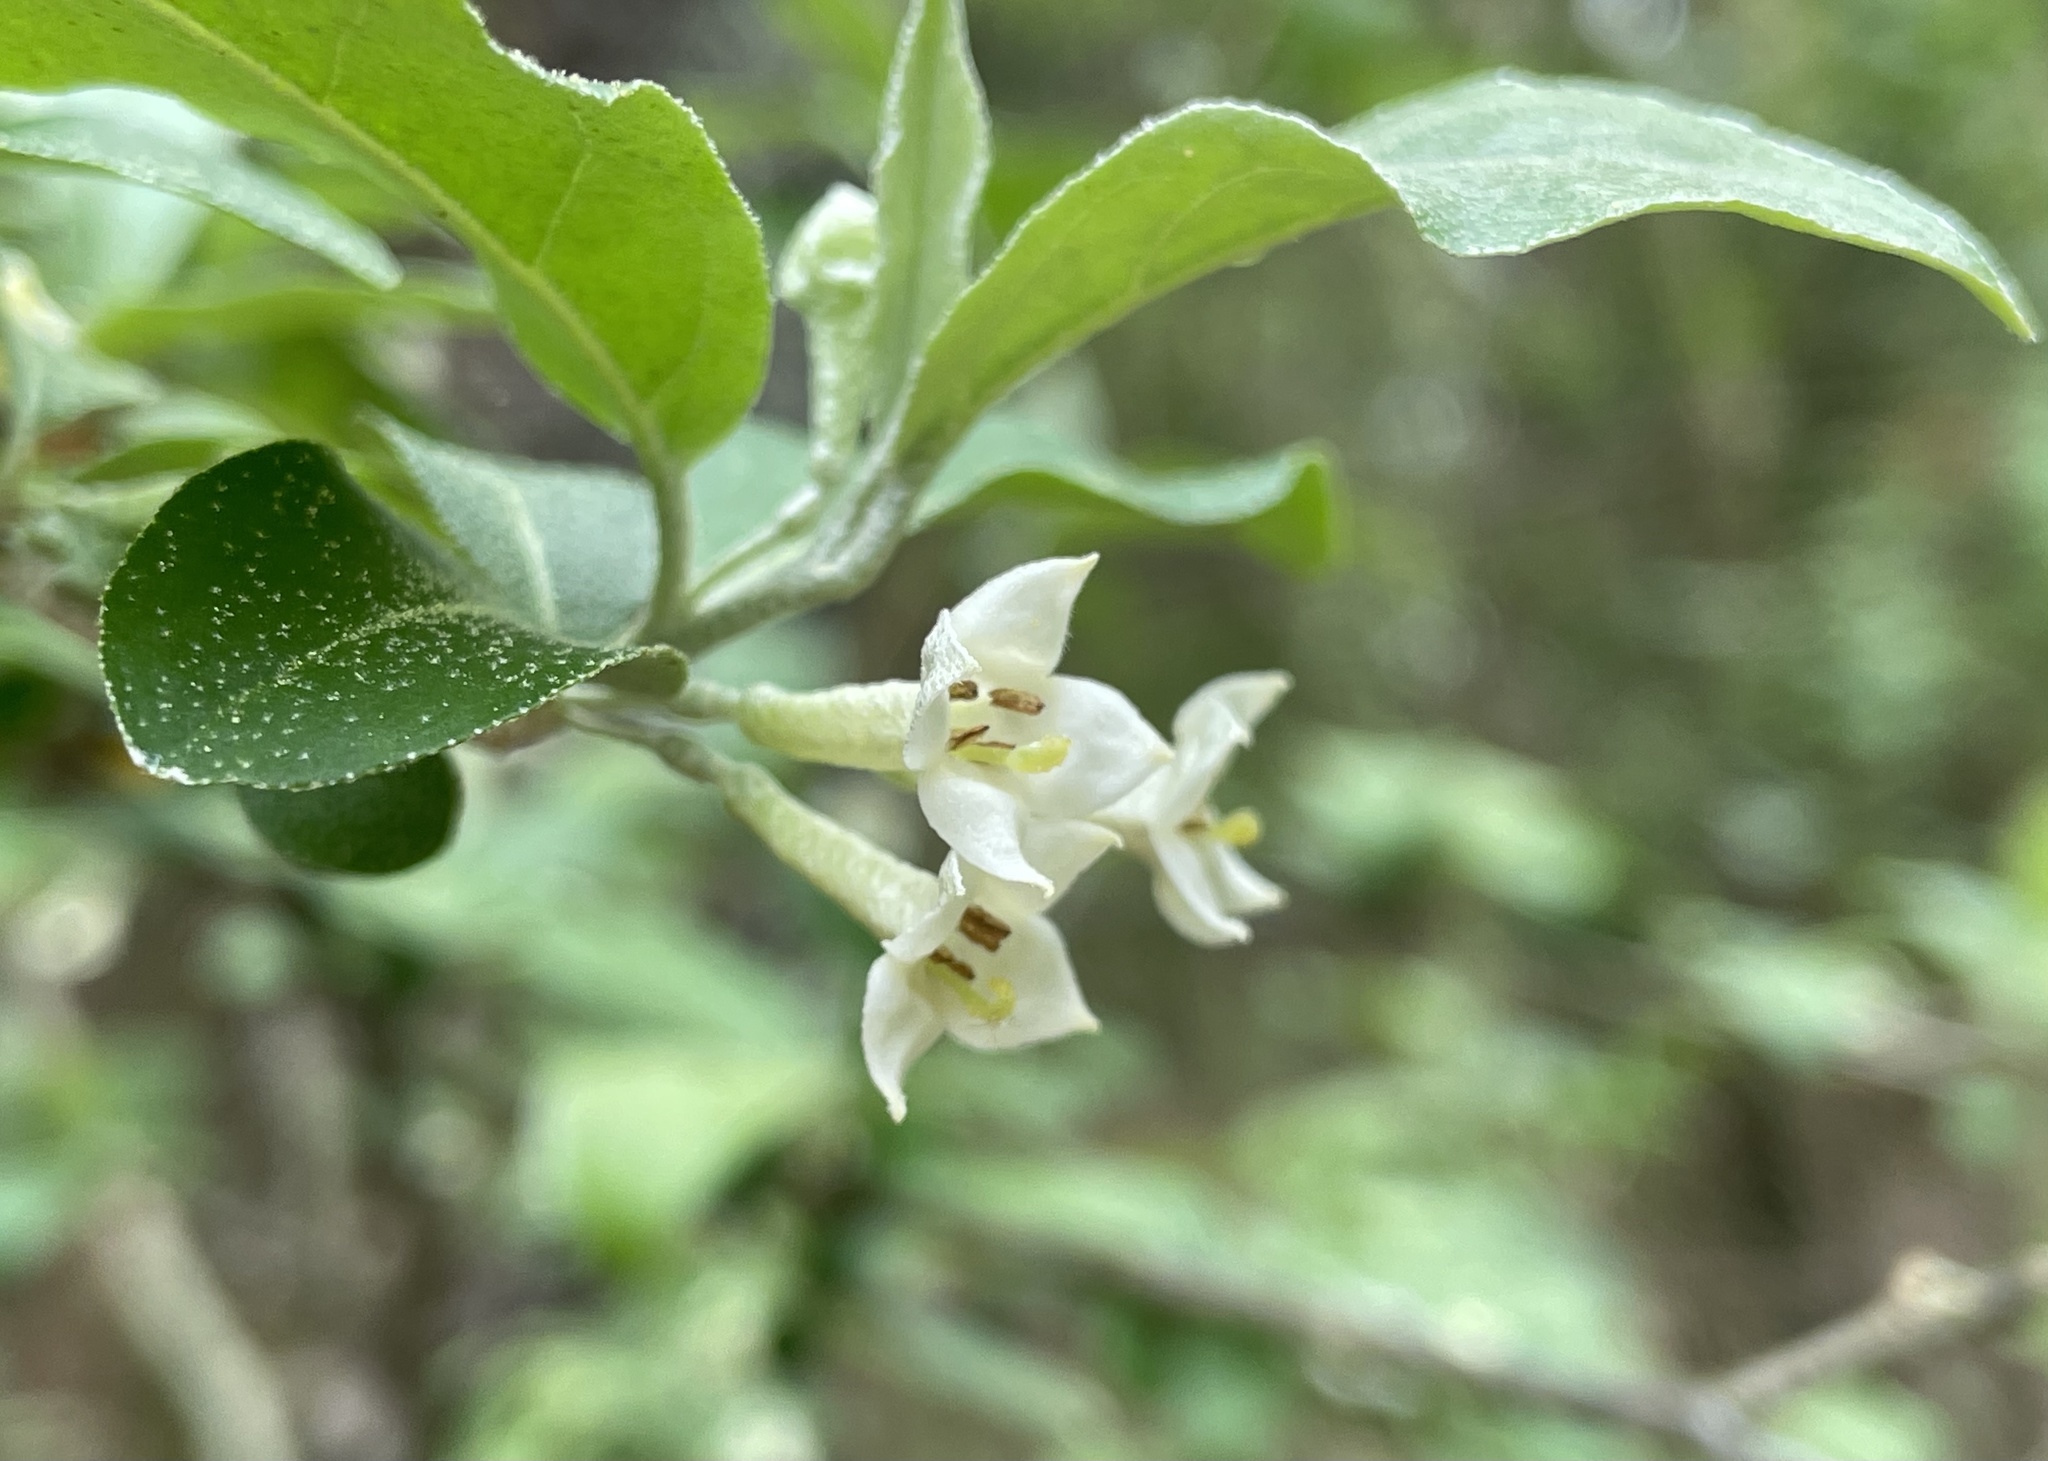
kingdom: Plantae
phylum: Tracheophyta
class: Magnoliopsida
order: Rosales
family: Elaeagnaceae
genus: Elaeagnus
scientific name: Elaeagnus umbellata
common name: Autumn olive
